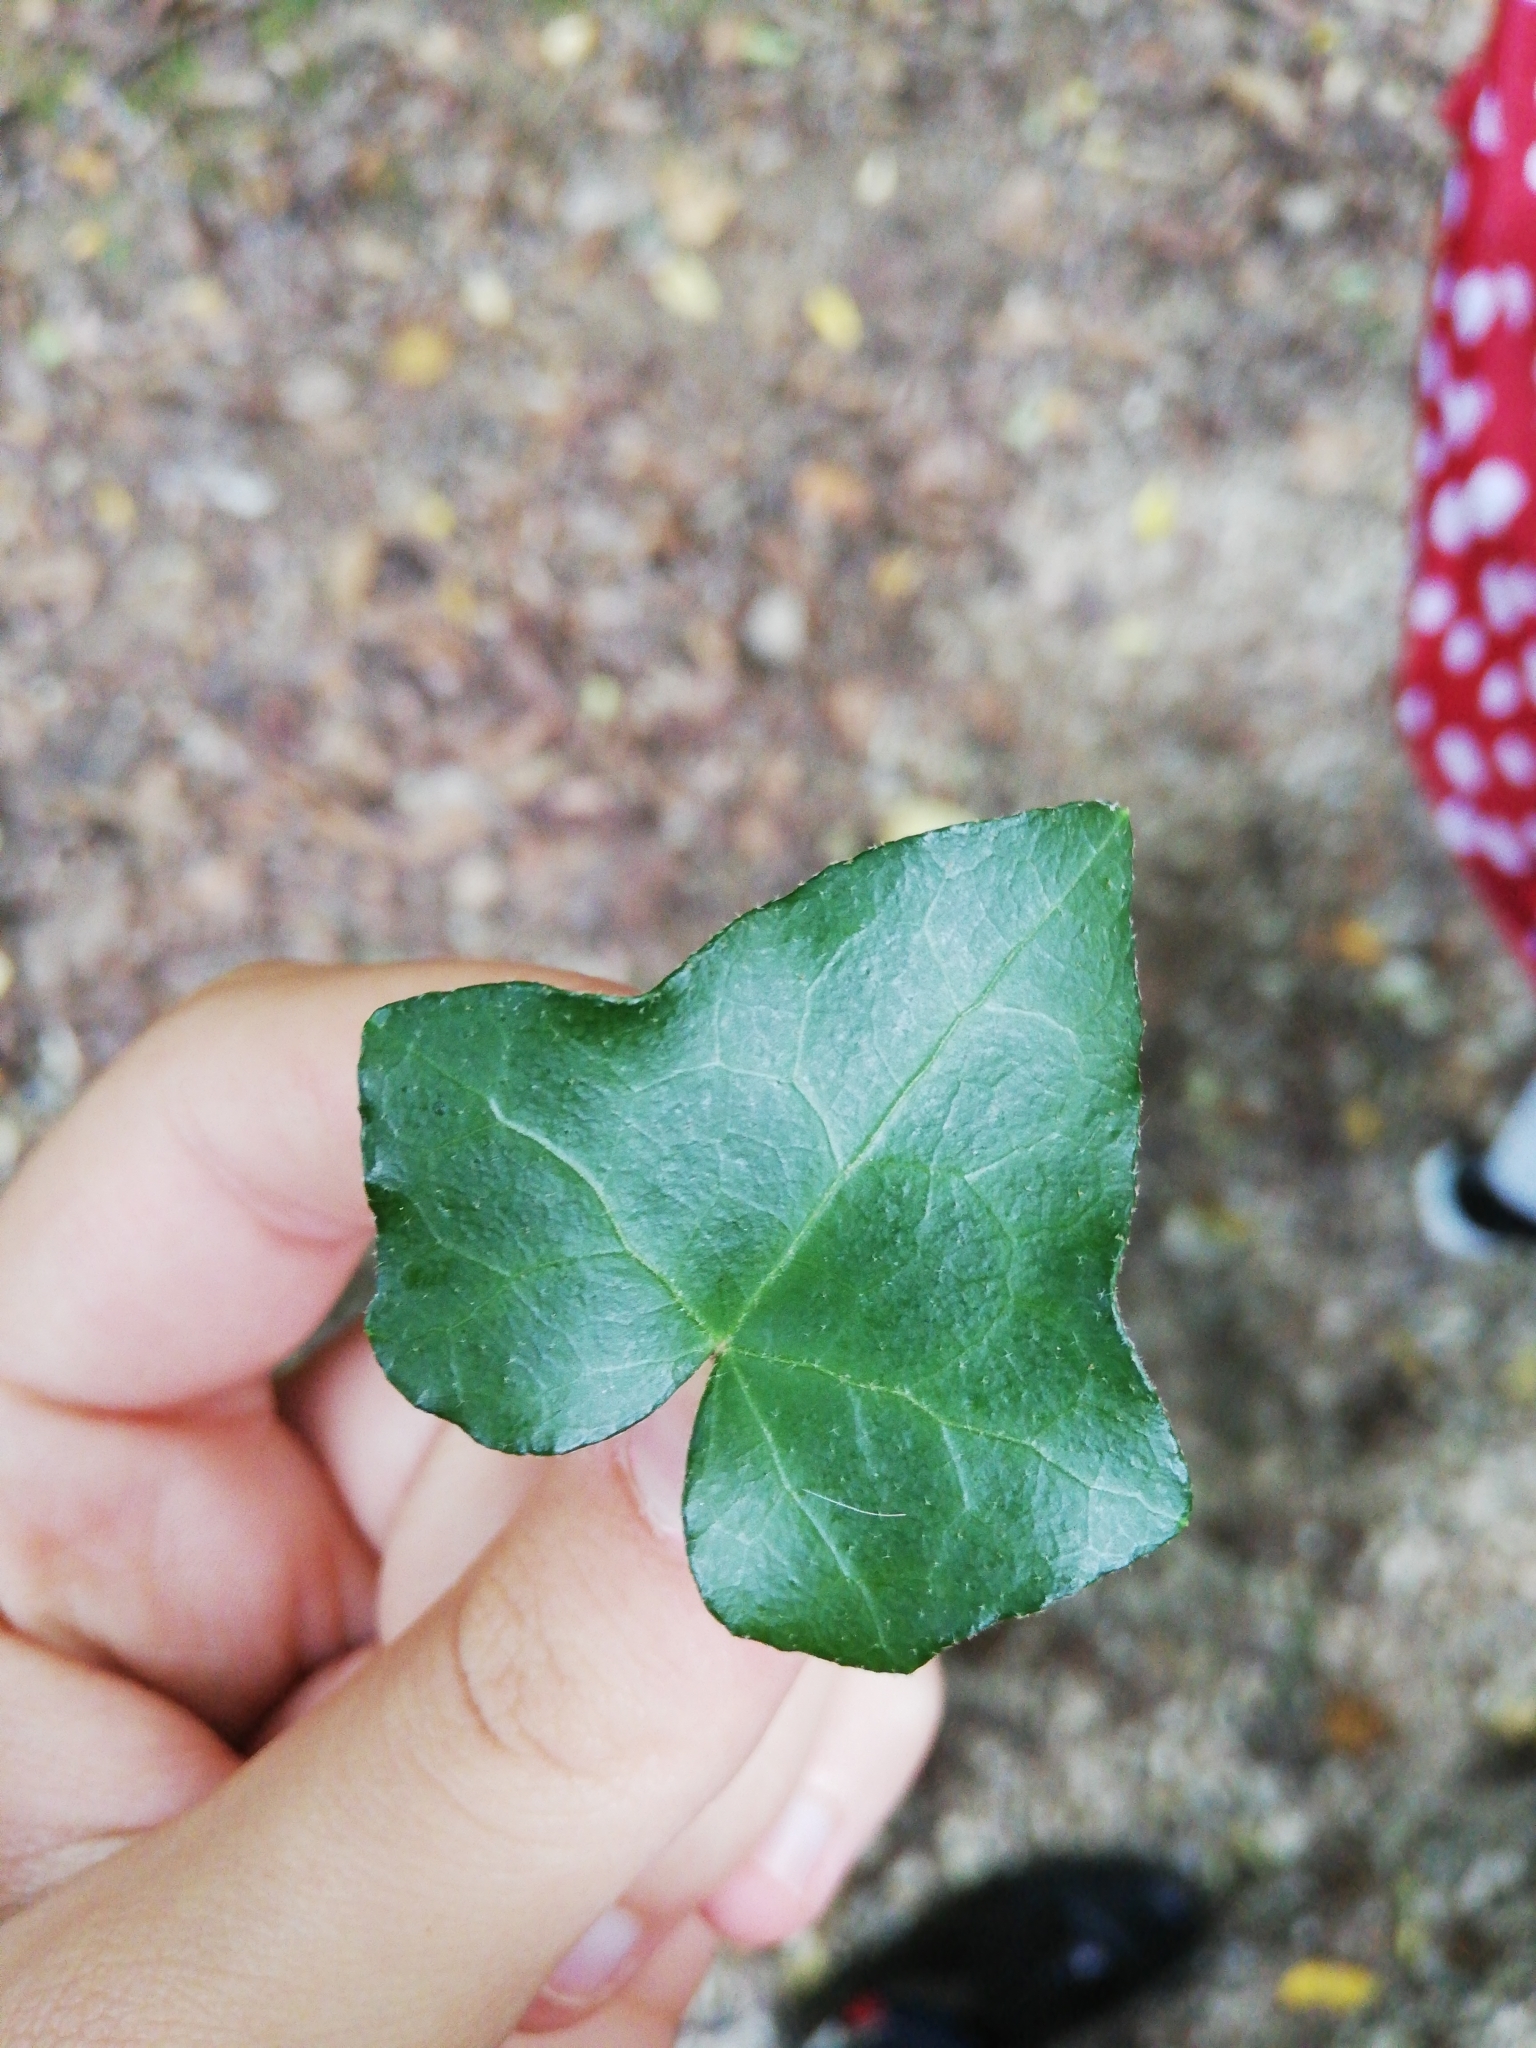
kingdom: Plantae
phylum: Tracheophyta
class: Magnoliopsida
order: Apiales
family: Araliaceae
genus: Hedera
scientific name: Hedera helix
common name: Ivy
